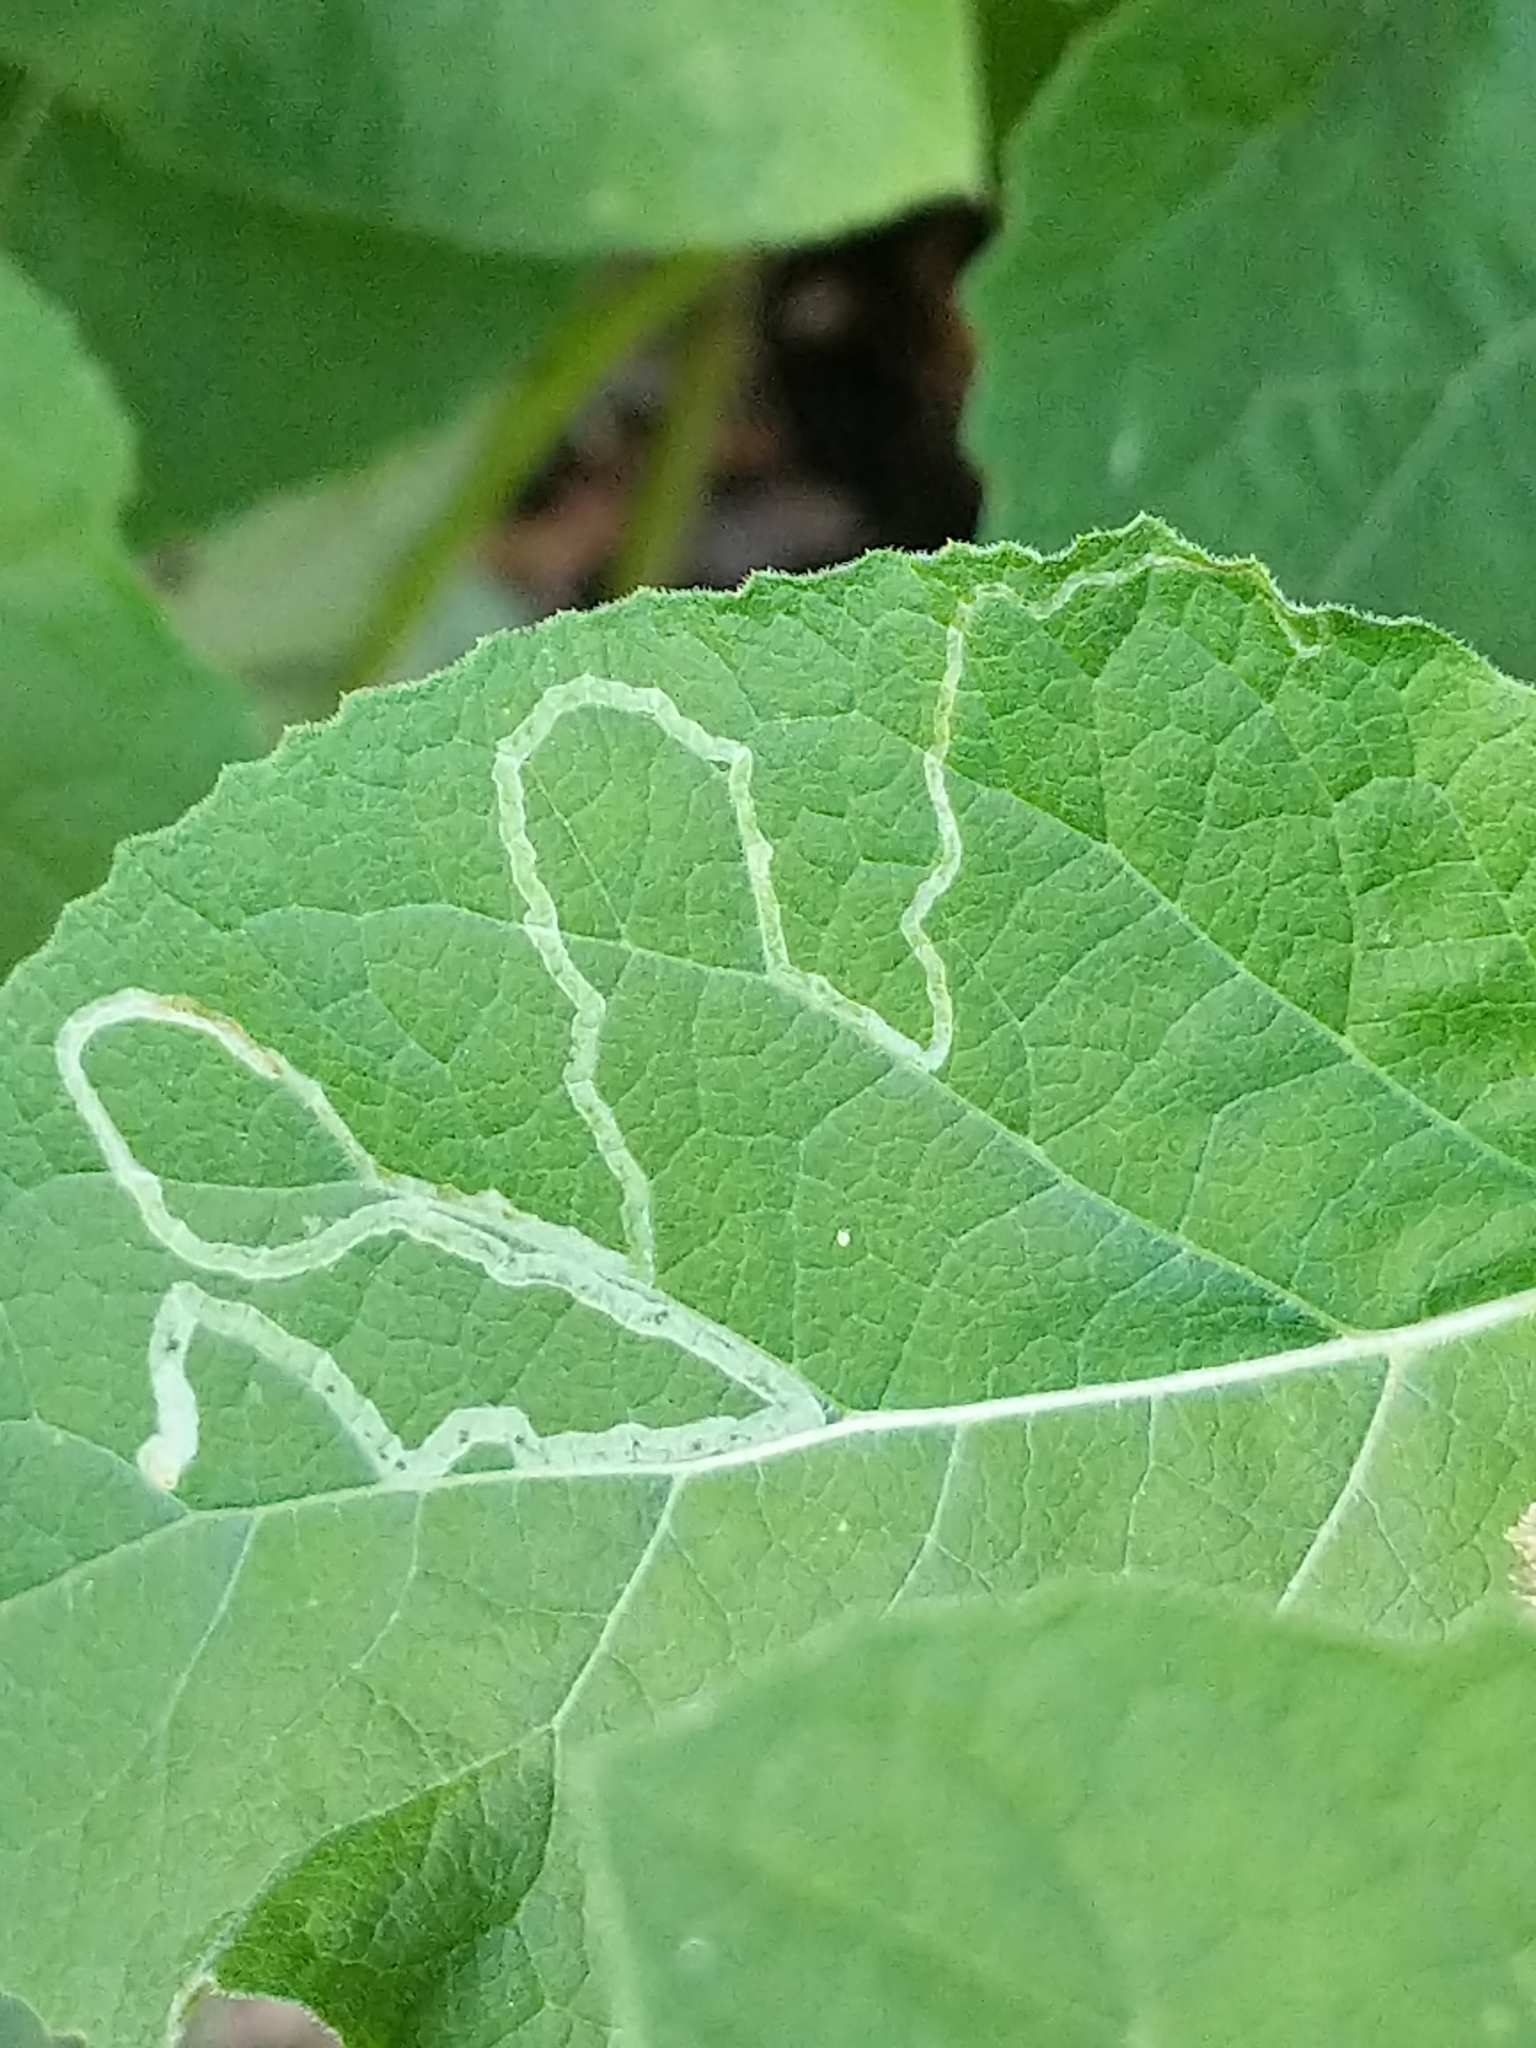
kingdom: Animalia
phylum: Arthropoda
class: Insecta
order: Diptera
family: Agromyzidae
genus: Liriomyza
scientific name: Liriomyza arctii
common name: Burdock leafminer
